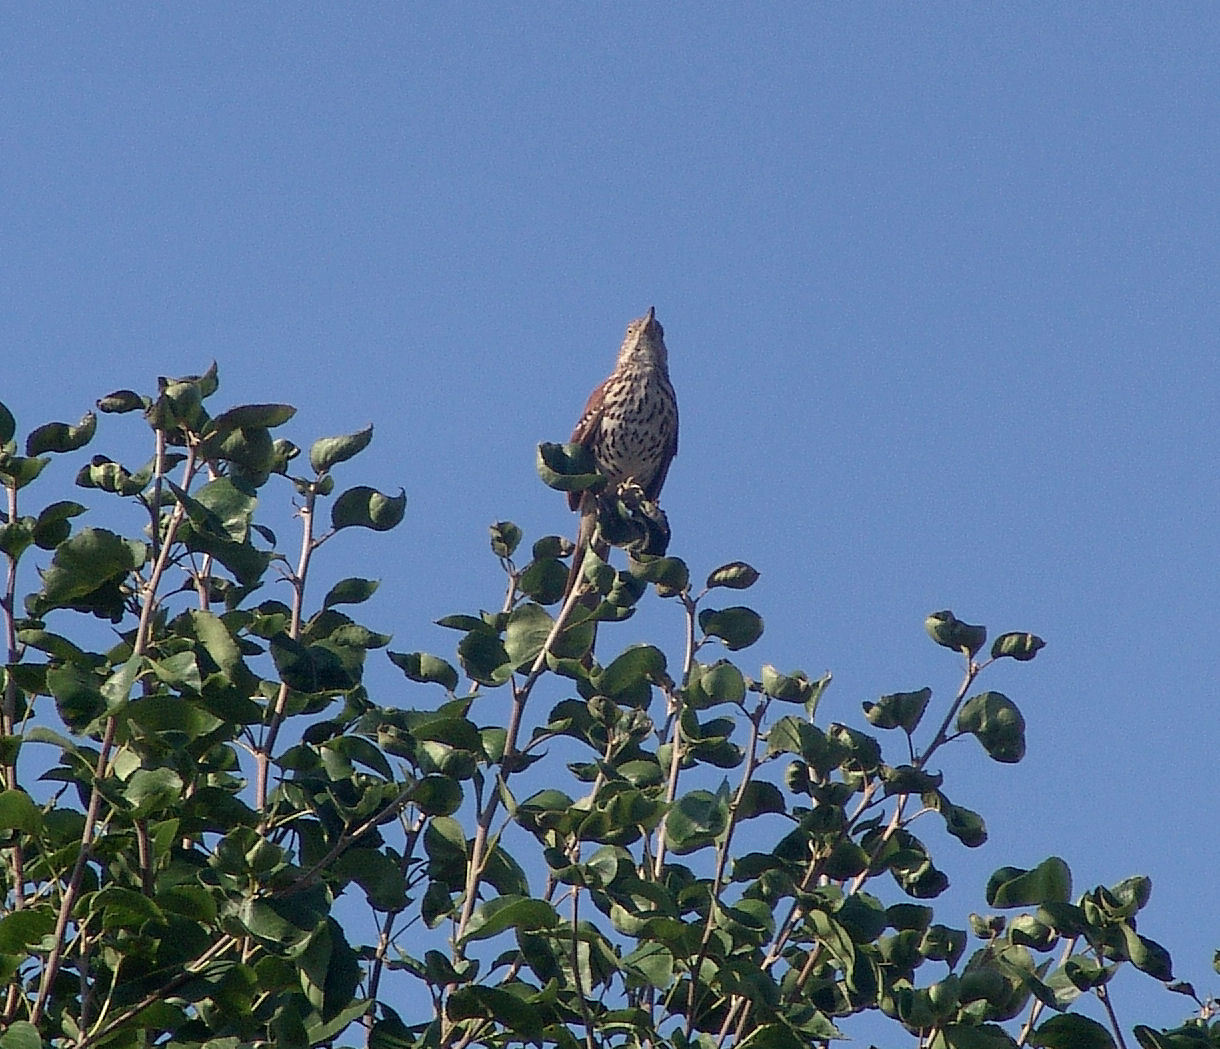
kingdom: Animalia
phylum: Chordata
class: Aves
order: Passeriformes
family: Mimidae
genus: Toxostoma
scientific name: Toxostoma rufum
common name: Brown thrasher
